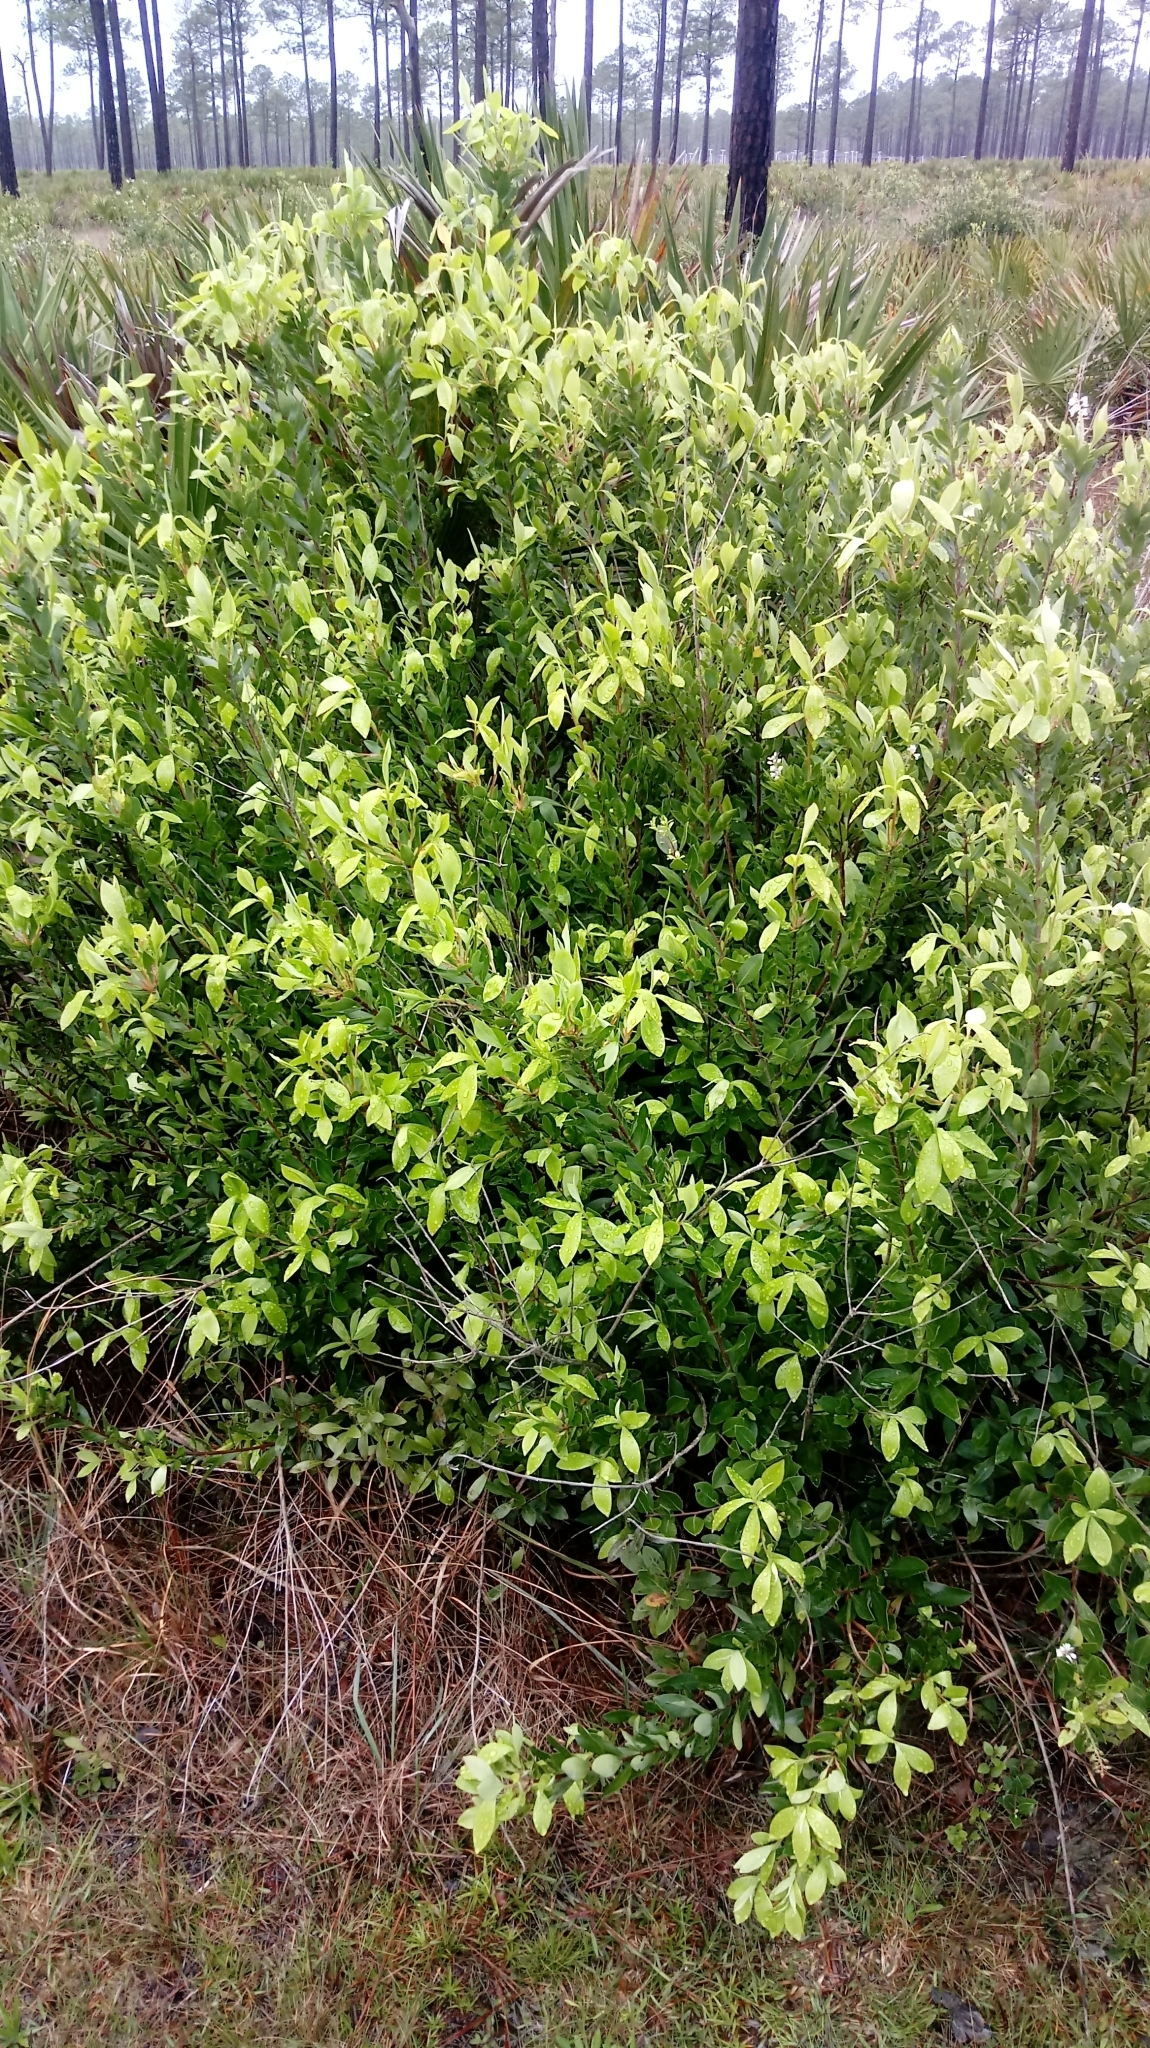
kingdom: Plantae
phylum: Tracheophyta
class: Magnoliopsida
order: Ericales
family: Cyrillaceae
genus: Cliftonia
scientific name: Cliftonia monophylla
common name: Titi
